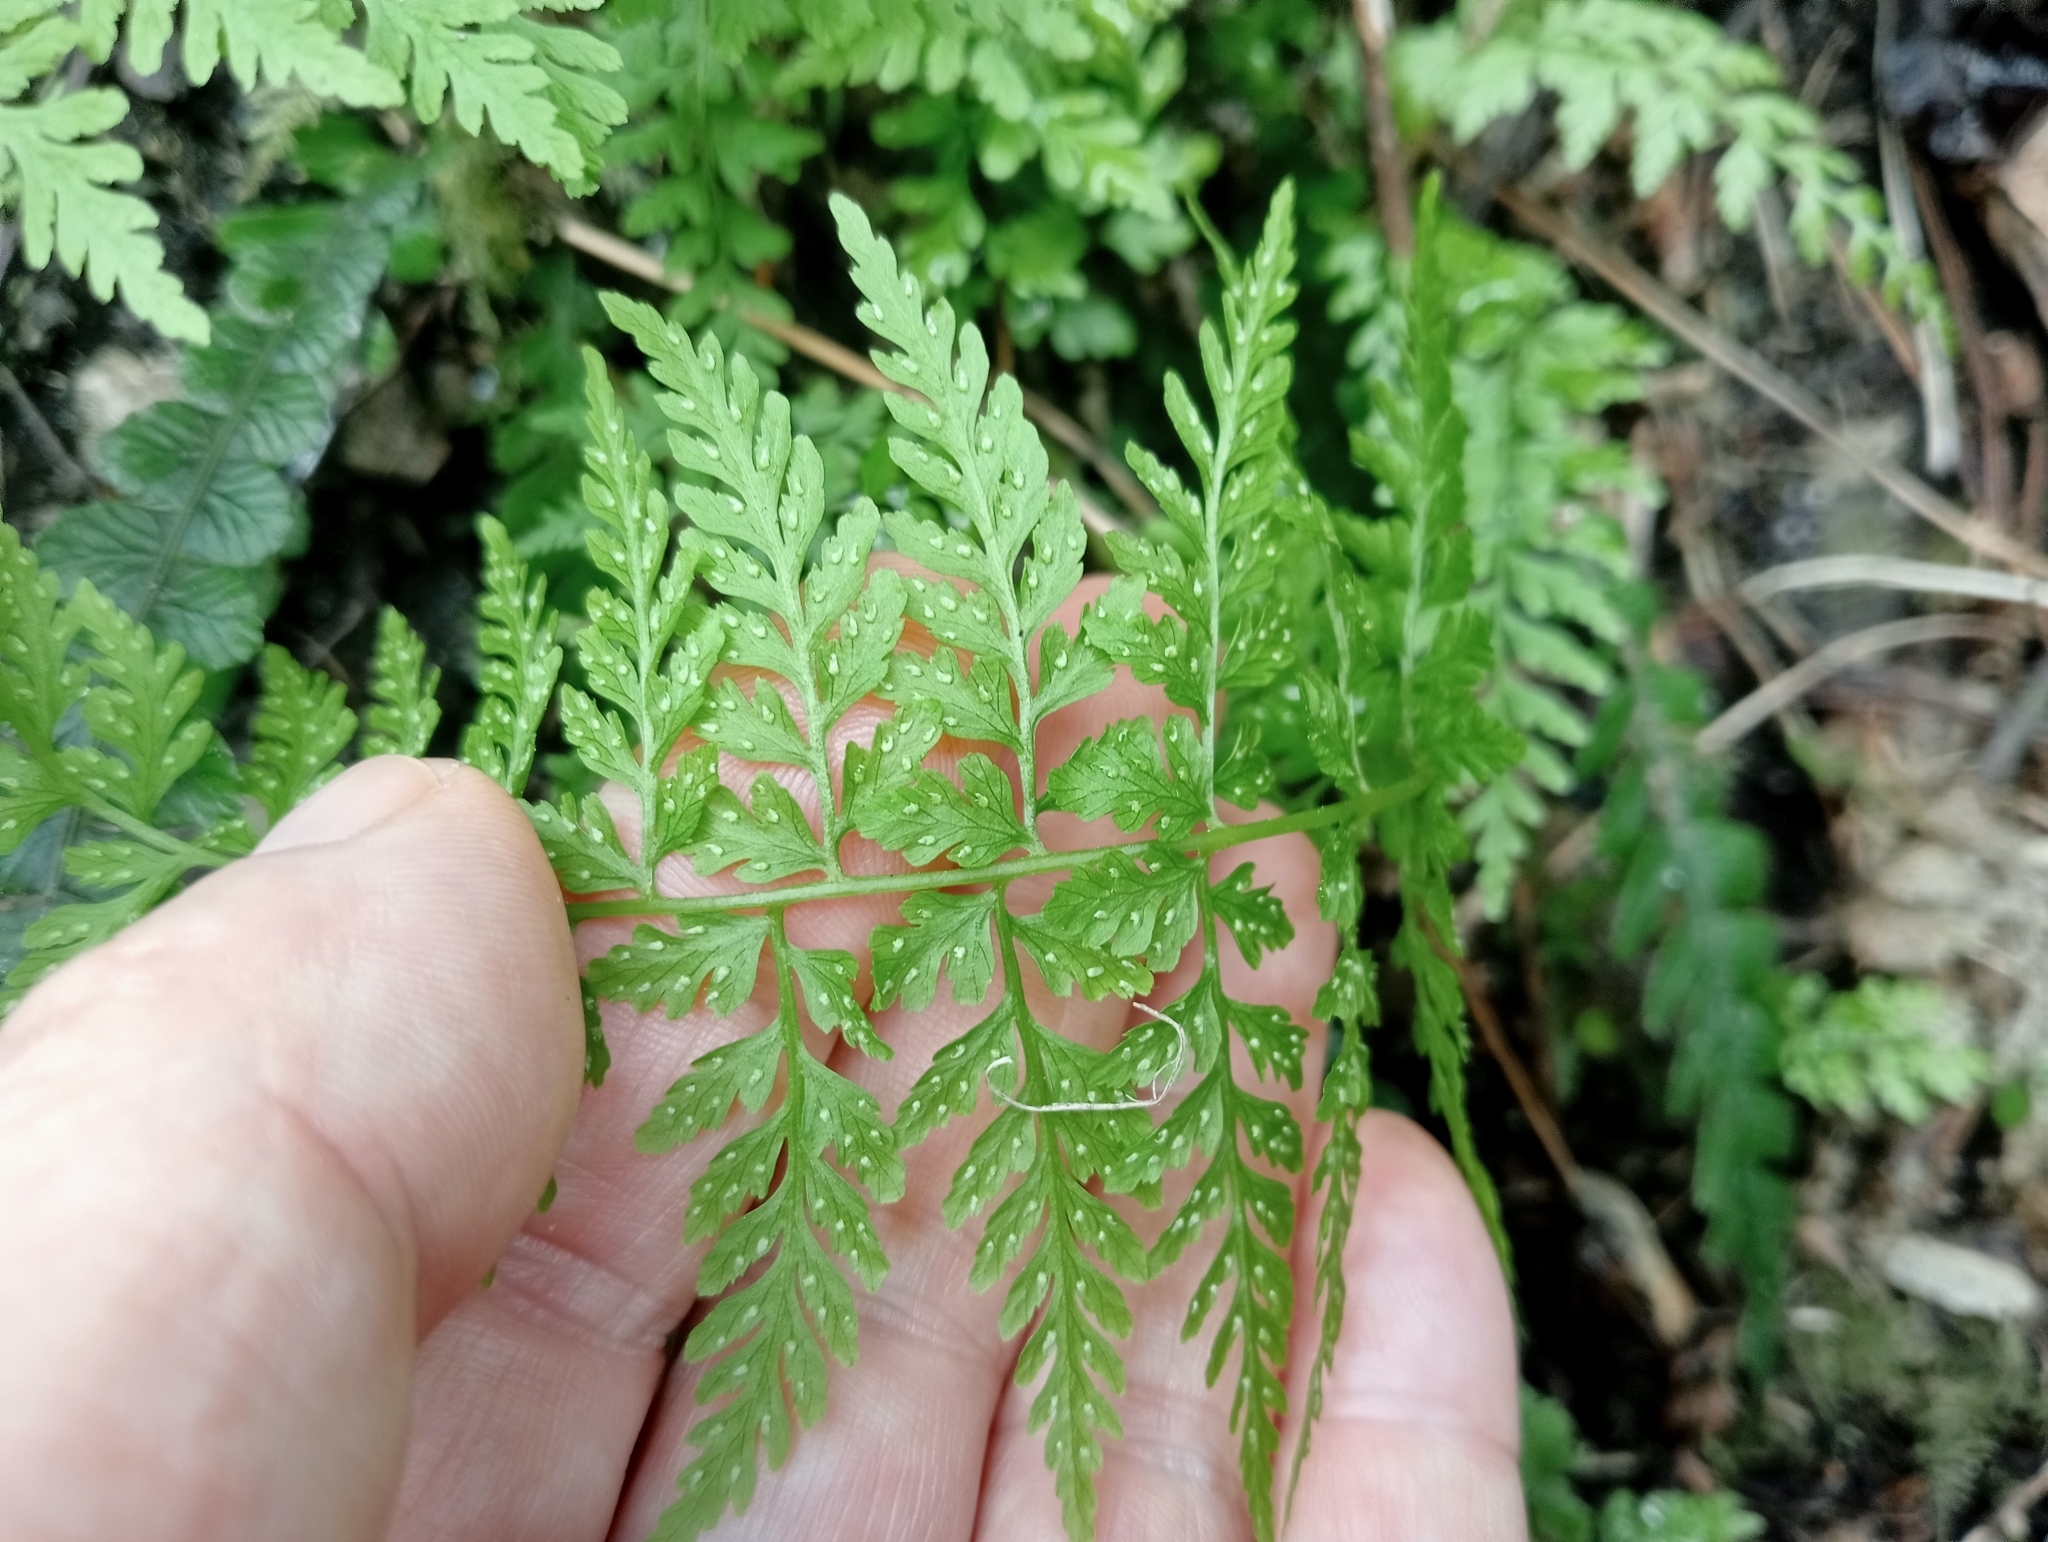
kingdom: Plantae
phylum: Tracheophyta
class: Polypodiopsida
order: Polypodiales
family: Cystopteridaceae
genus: Cystopteris
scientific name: Cystopteris fragilis
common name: Brittle bladder fern
